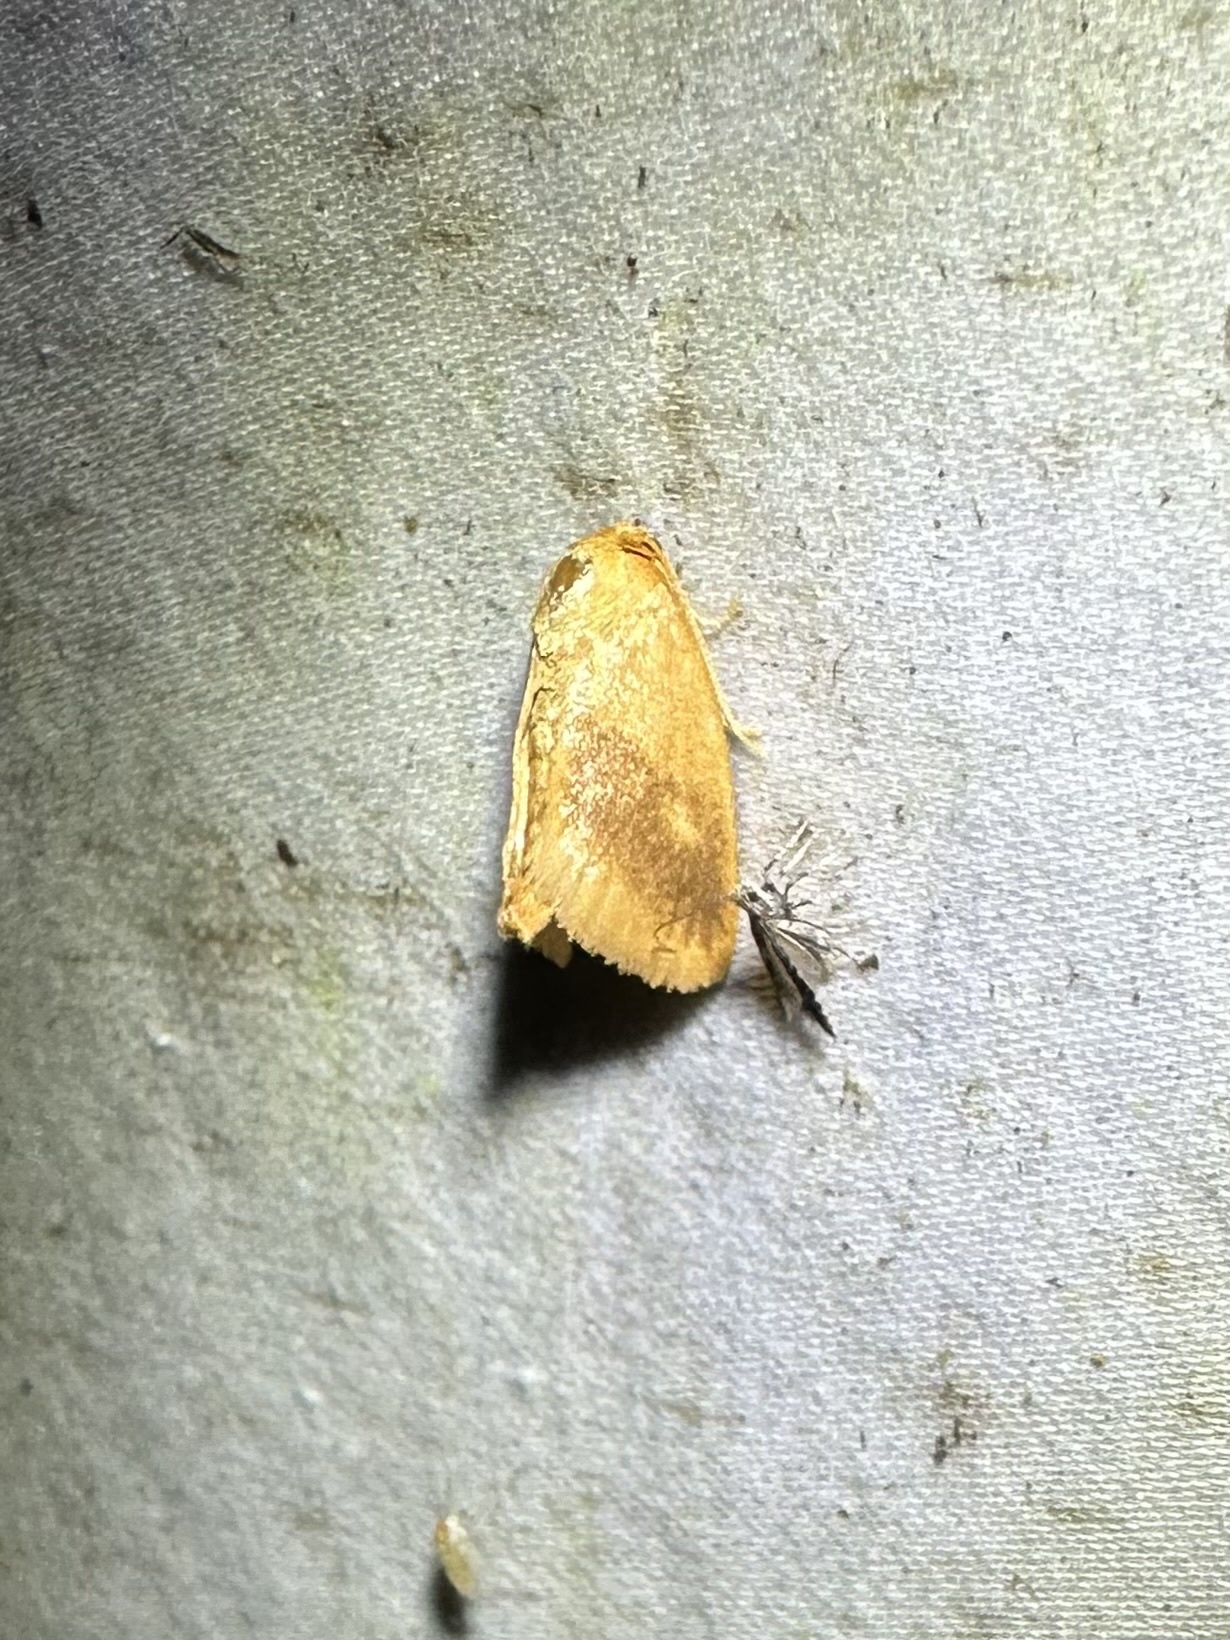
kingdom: Animalia
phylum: Arthropoda
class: Insecta
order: Lepidoptera
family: Limacodidae
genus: Tortricidia
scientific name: Tortricidia flexuosa
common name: Abbreviated button slug moth
